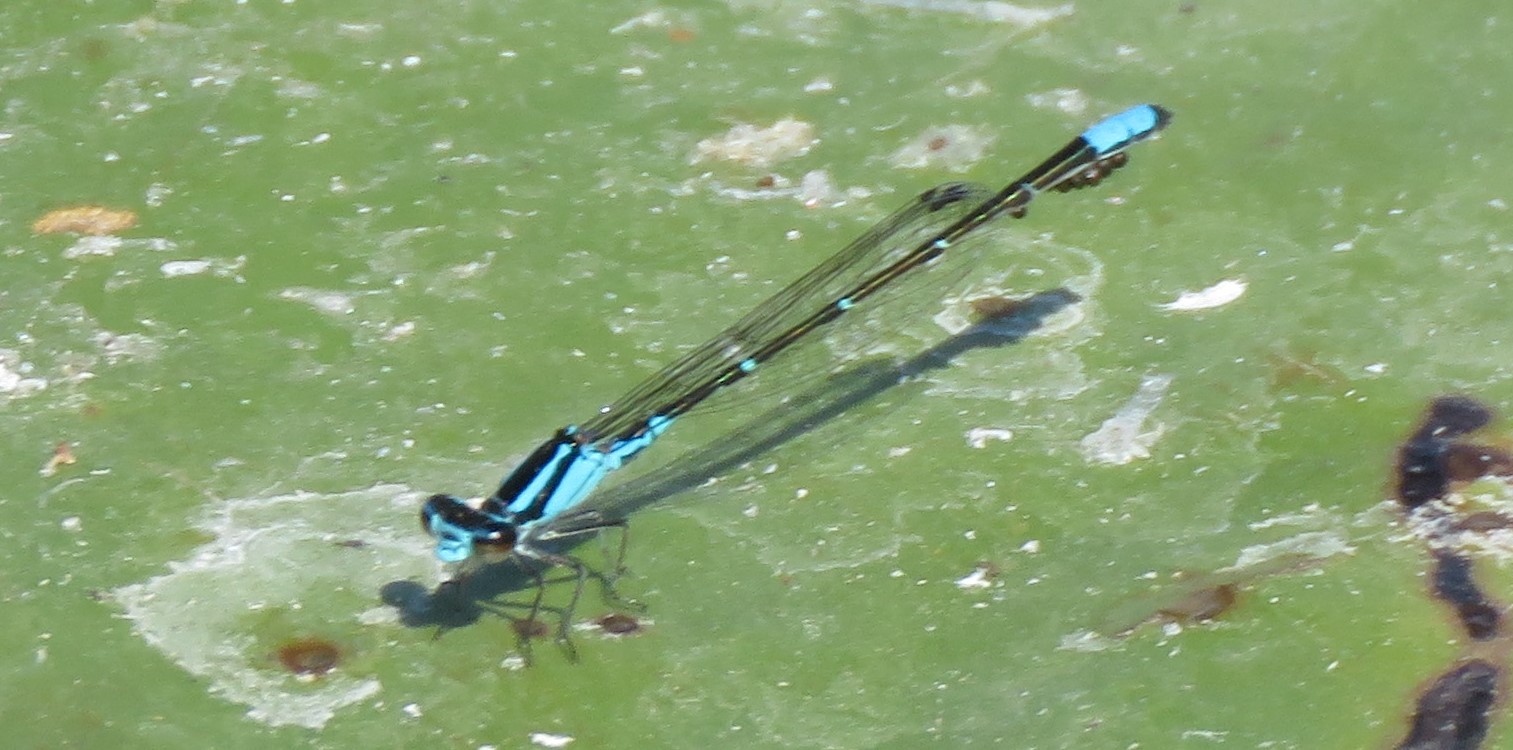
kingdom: Animalia
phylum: Arthropoda
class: Insecta
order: Odonata
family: Coenagrionidae
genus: Enallagma
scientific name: Enallagma geminatum
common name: Skimming bluet
